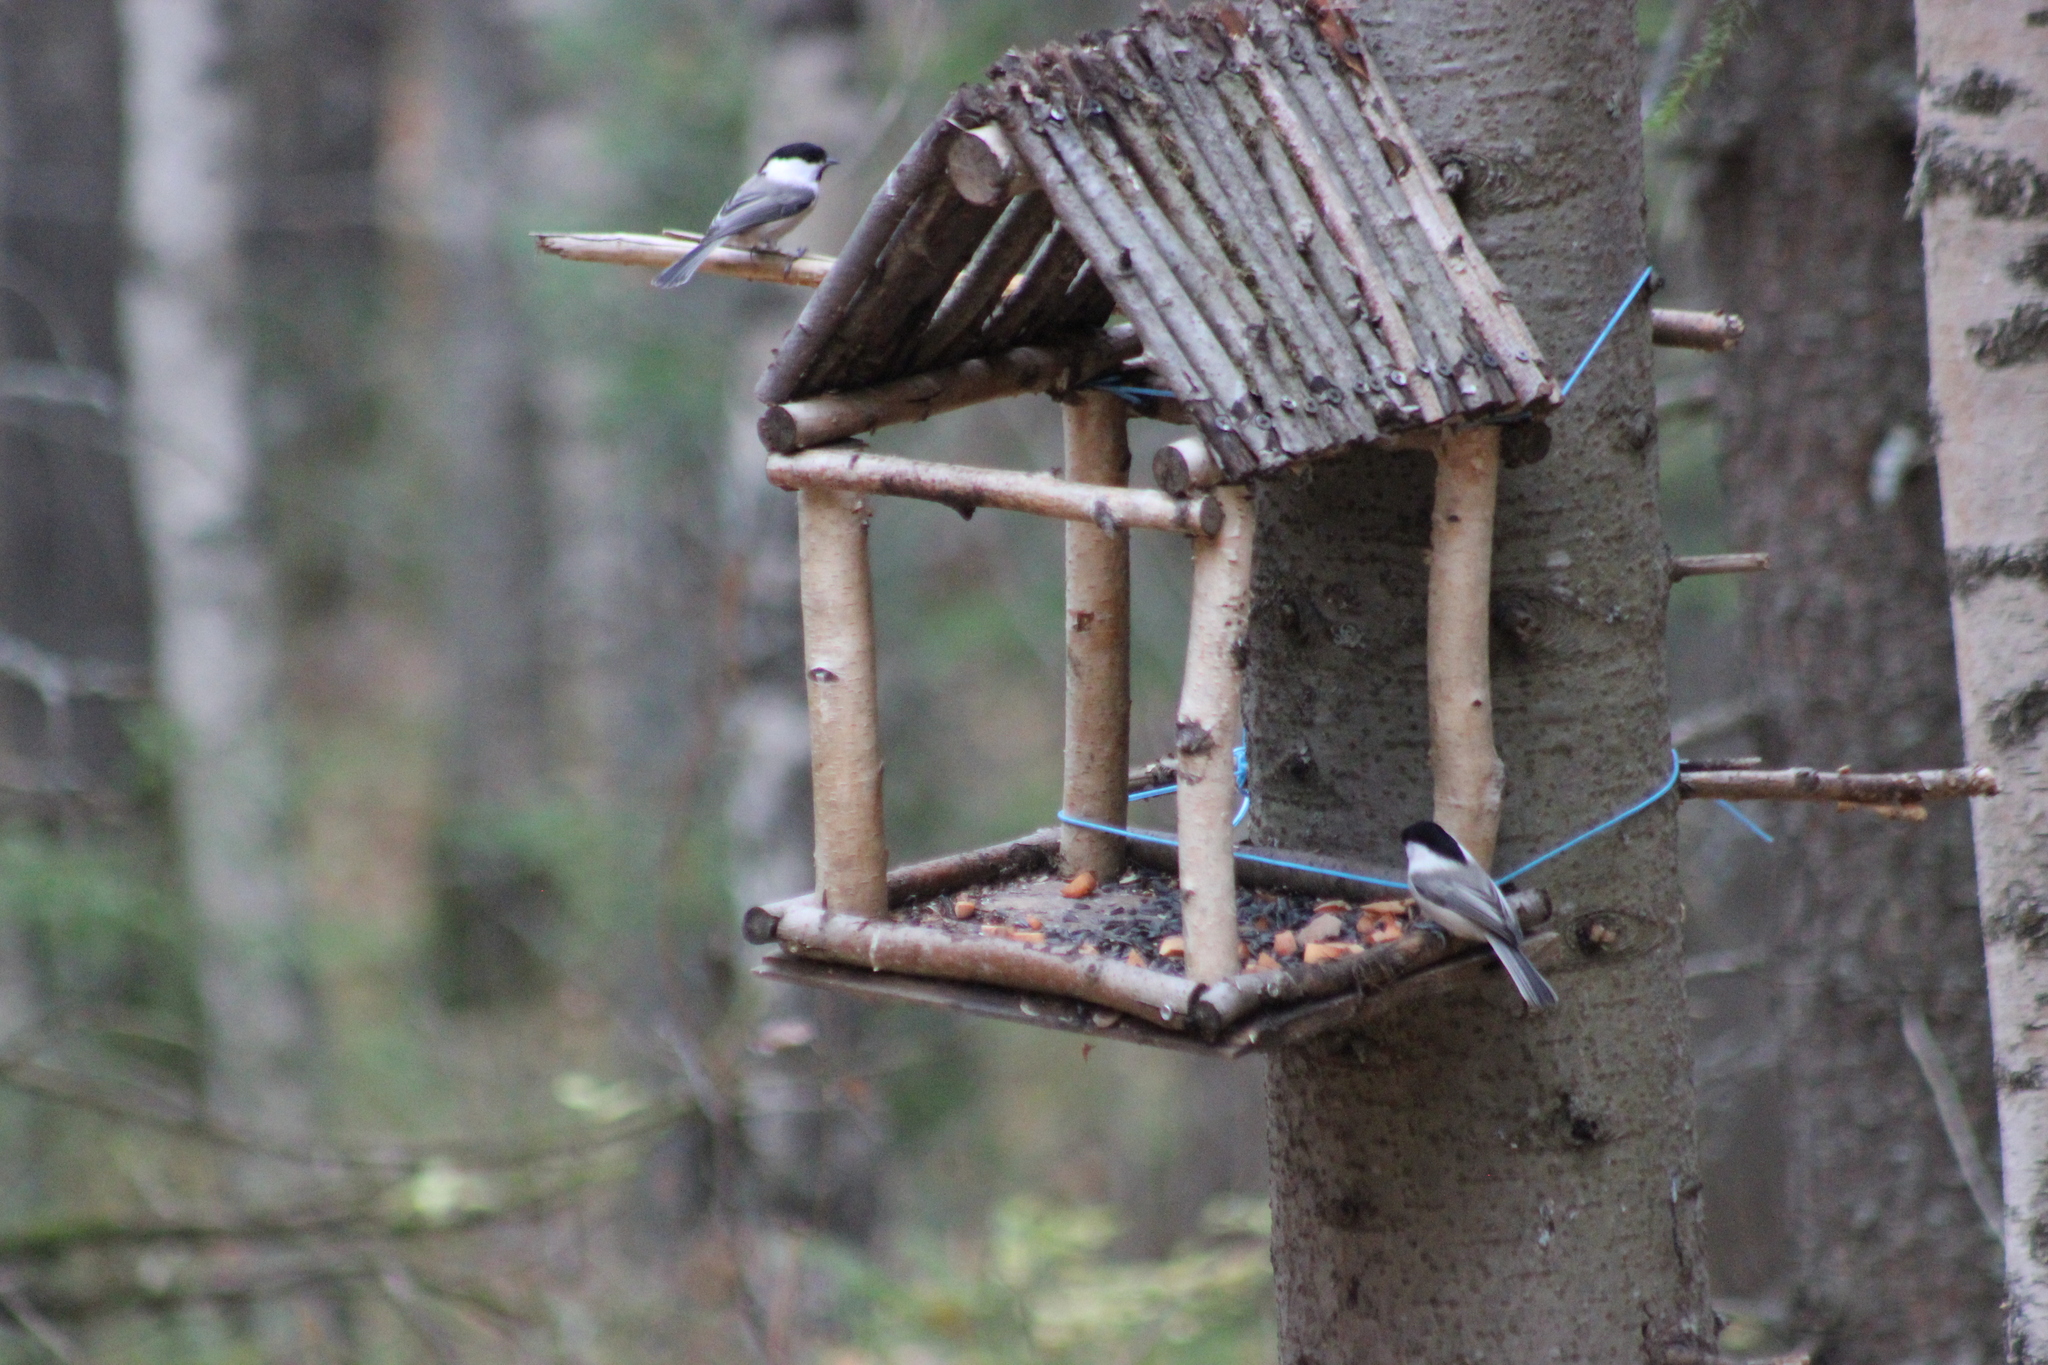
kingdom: Animalia
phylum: Chordata
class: Aves
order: Passeriformes
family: Paridae
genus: Poecile
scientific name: Poecile montanus
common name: Willow tit
